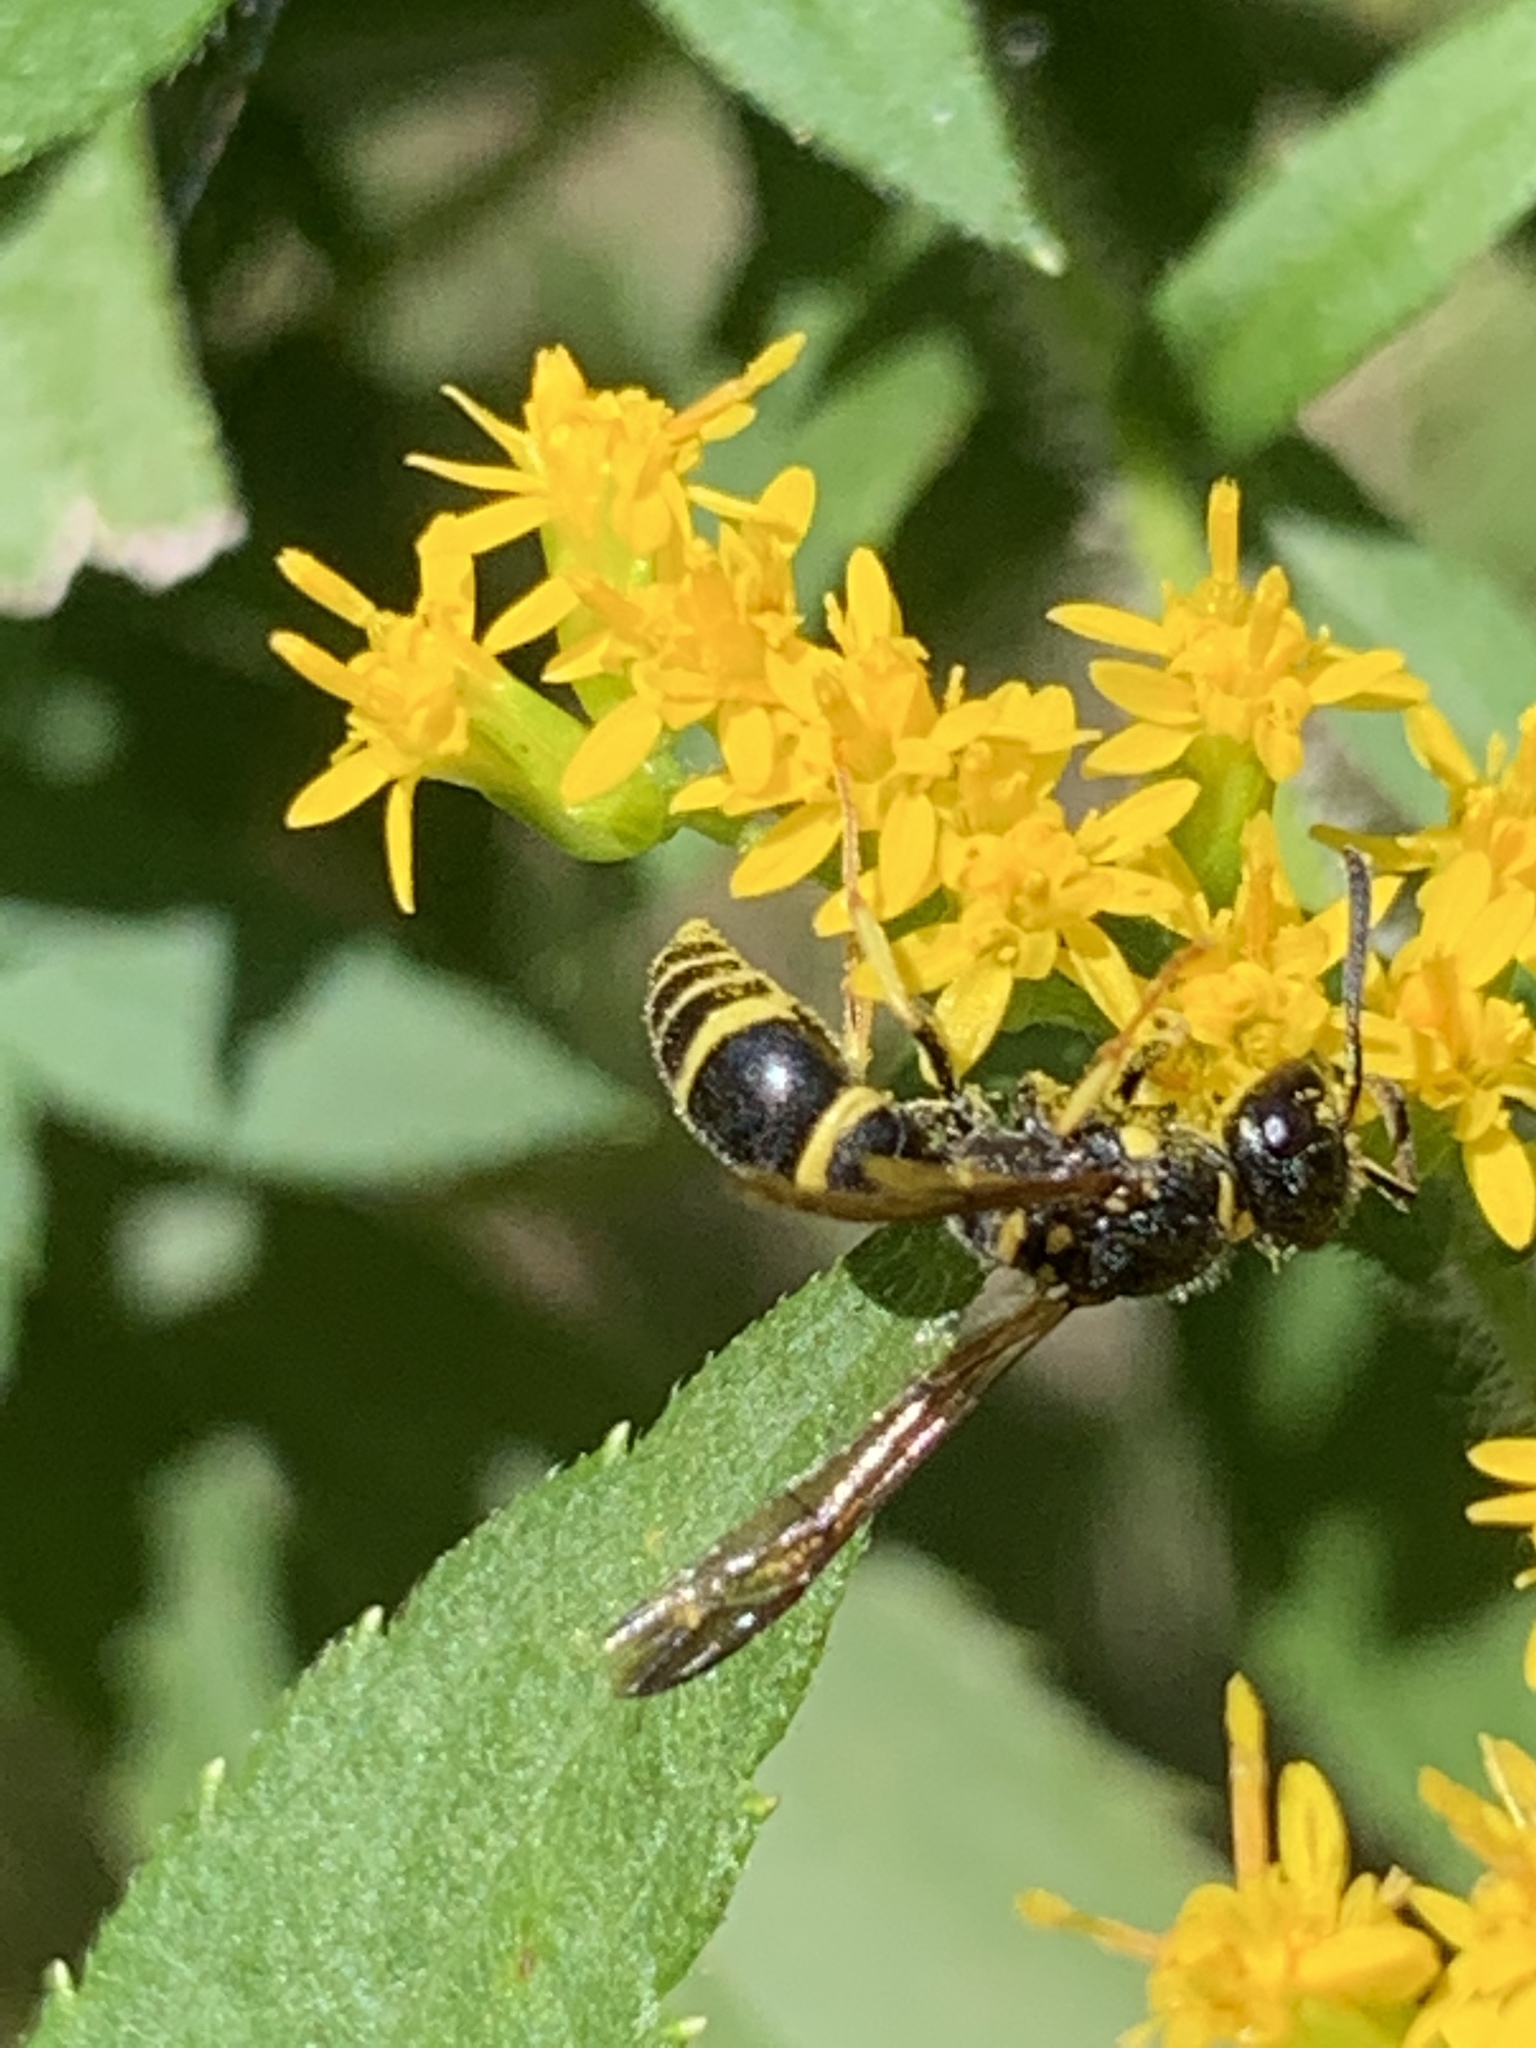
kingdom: Animalia
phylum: Arthropoda
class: Insecta
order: Hymenoptera
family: Vespidae
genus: Ancistrocerus
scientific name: Ancistrocerus adiabatus
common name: Bramble mason wasp
